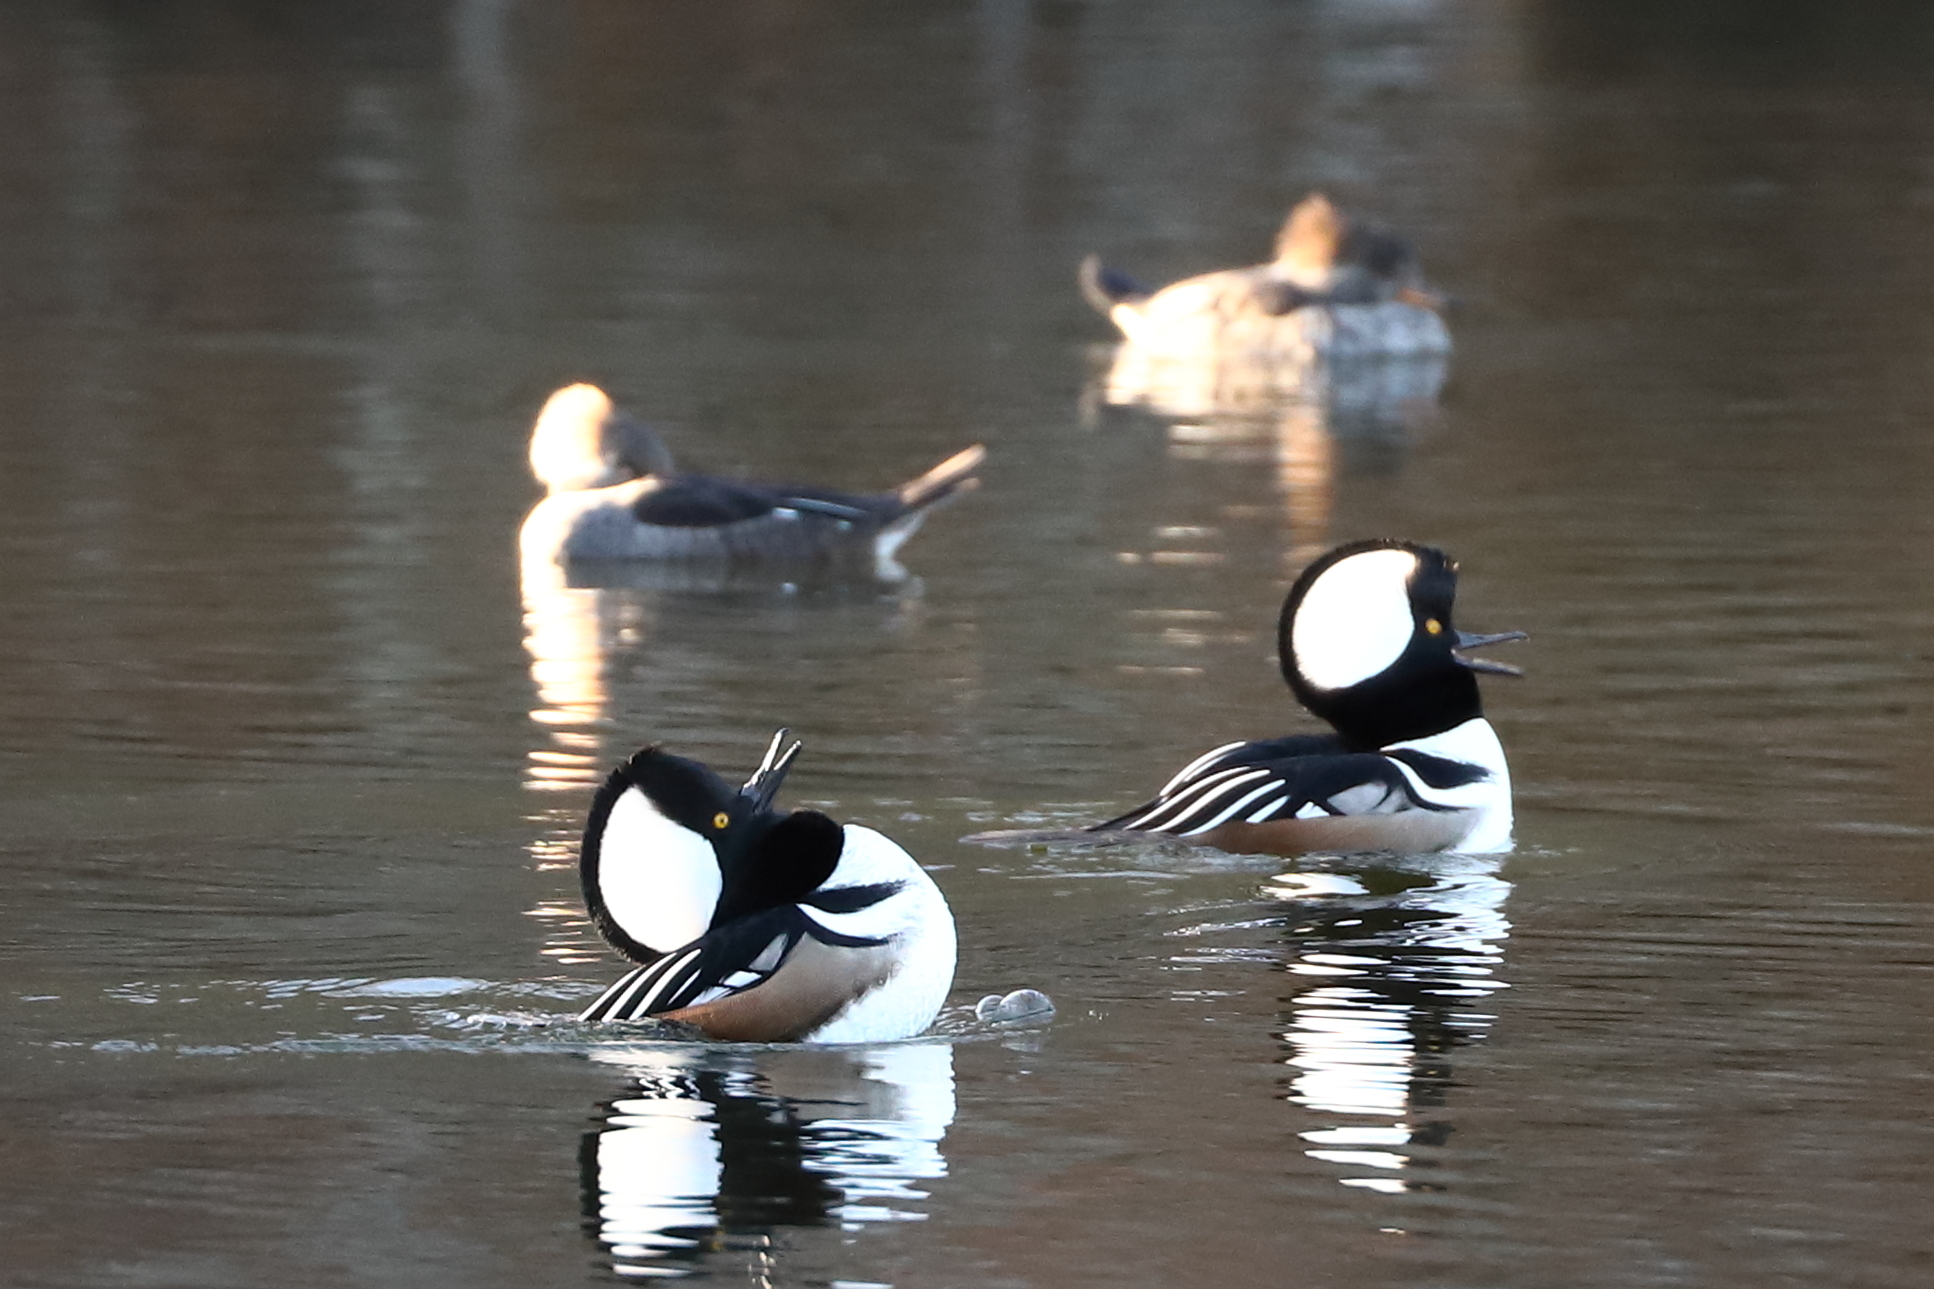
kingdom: Animalia
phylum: Chordata
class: Aves
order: Anseriformes
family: Anatidae
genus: Lophodytes
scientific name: Lophodytes cucullatus
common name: Hooded merganser
